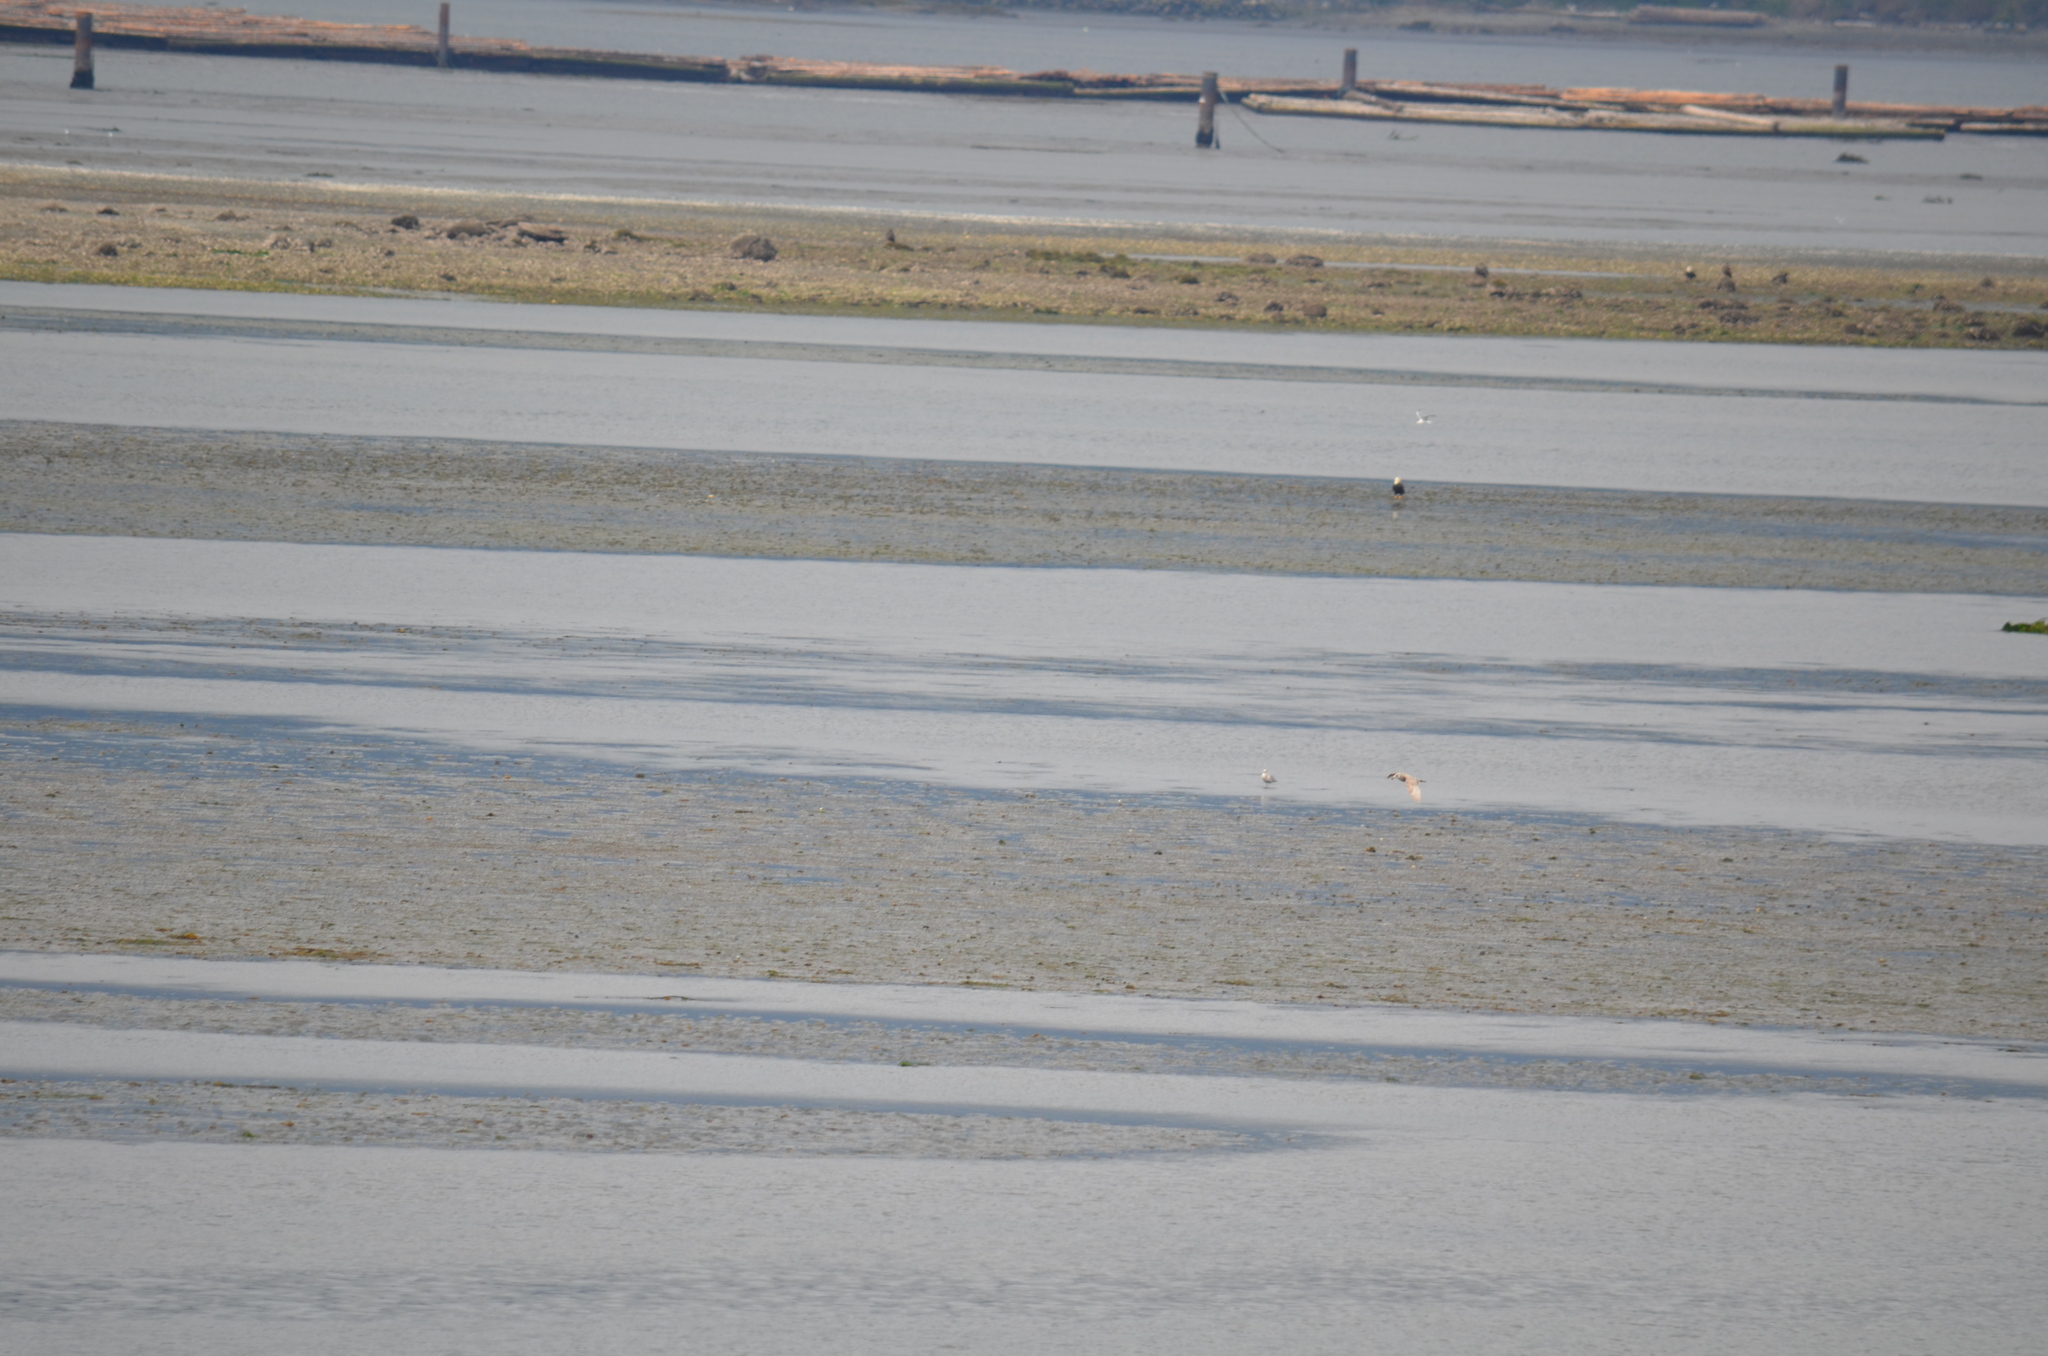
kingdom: Animalia
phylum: Chordata
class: Aves
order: Accipitriformes
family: Accipitridae
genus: Haliaeetus
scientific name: Haliaeetus leucocephalus
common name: Bald eagle
